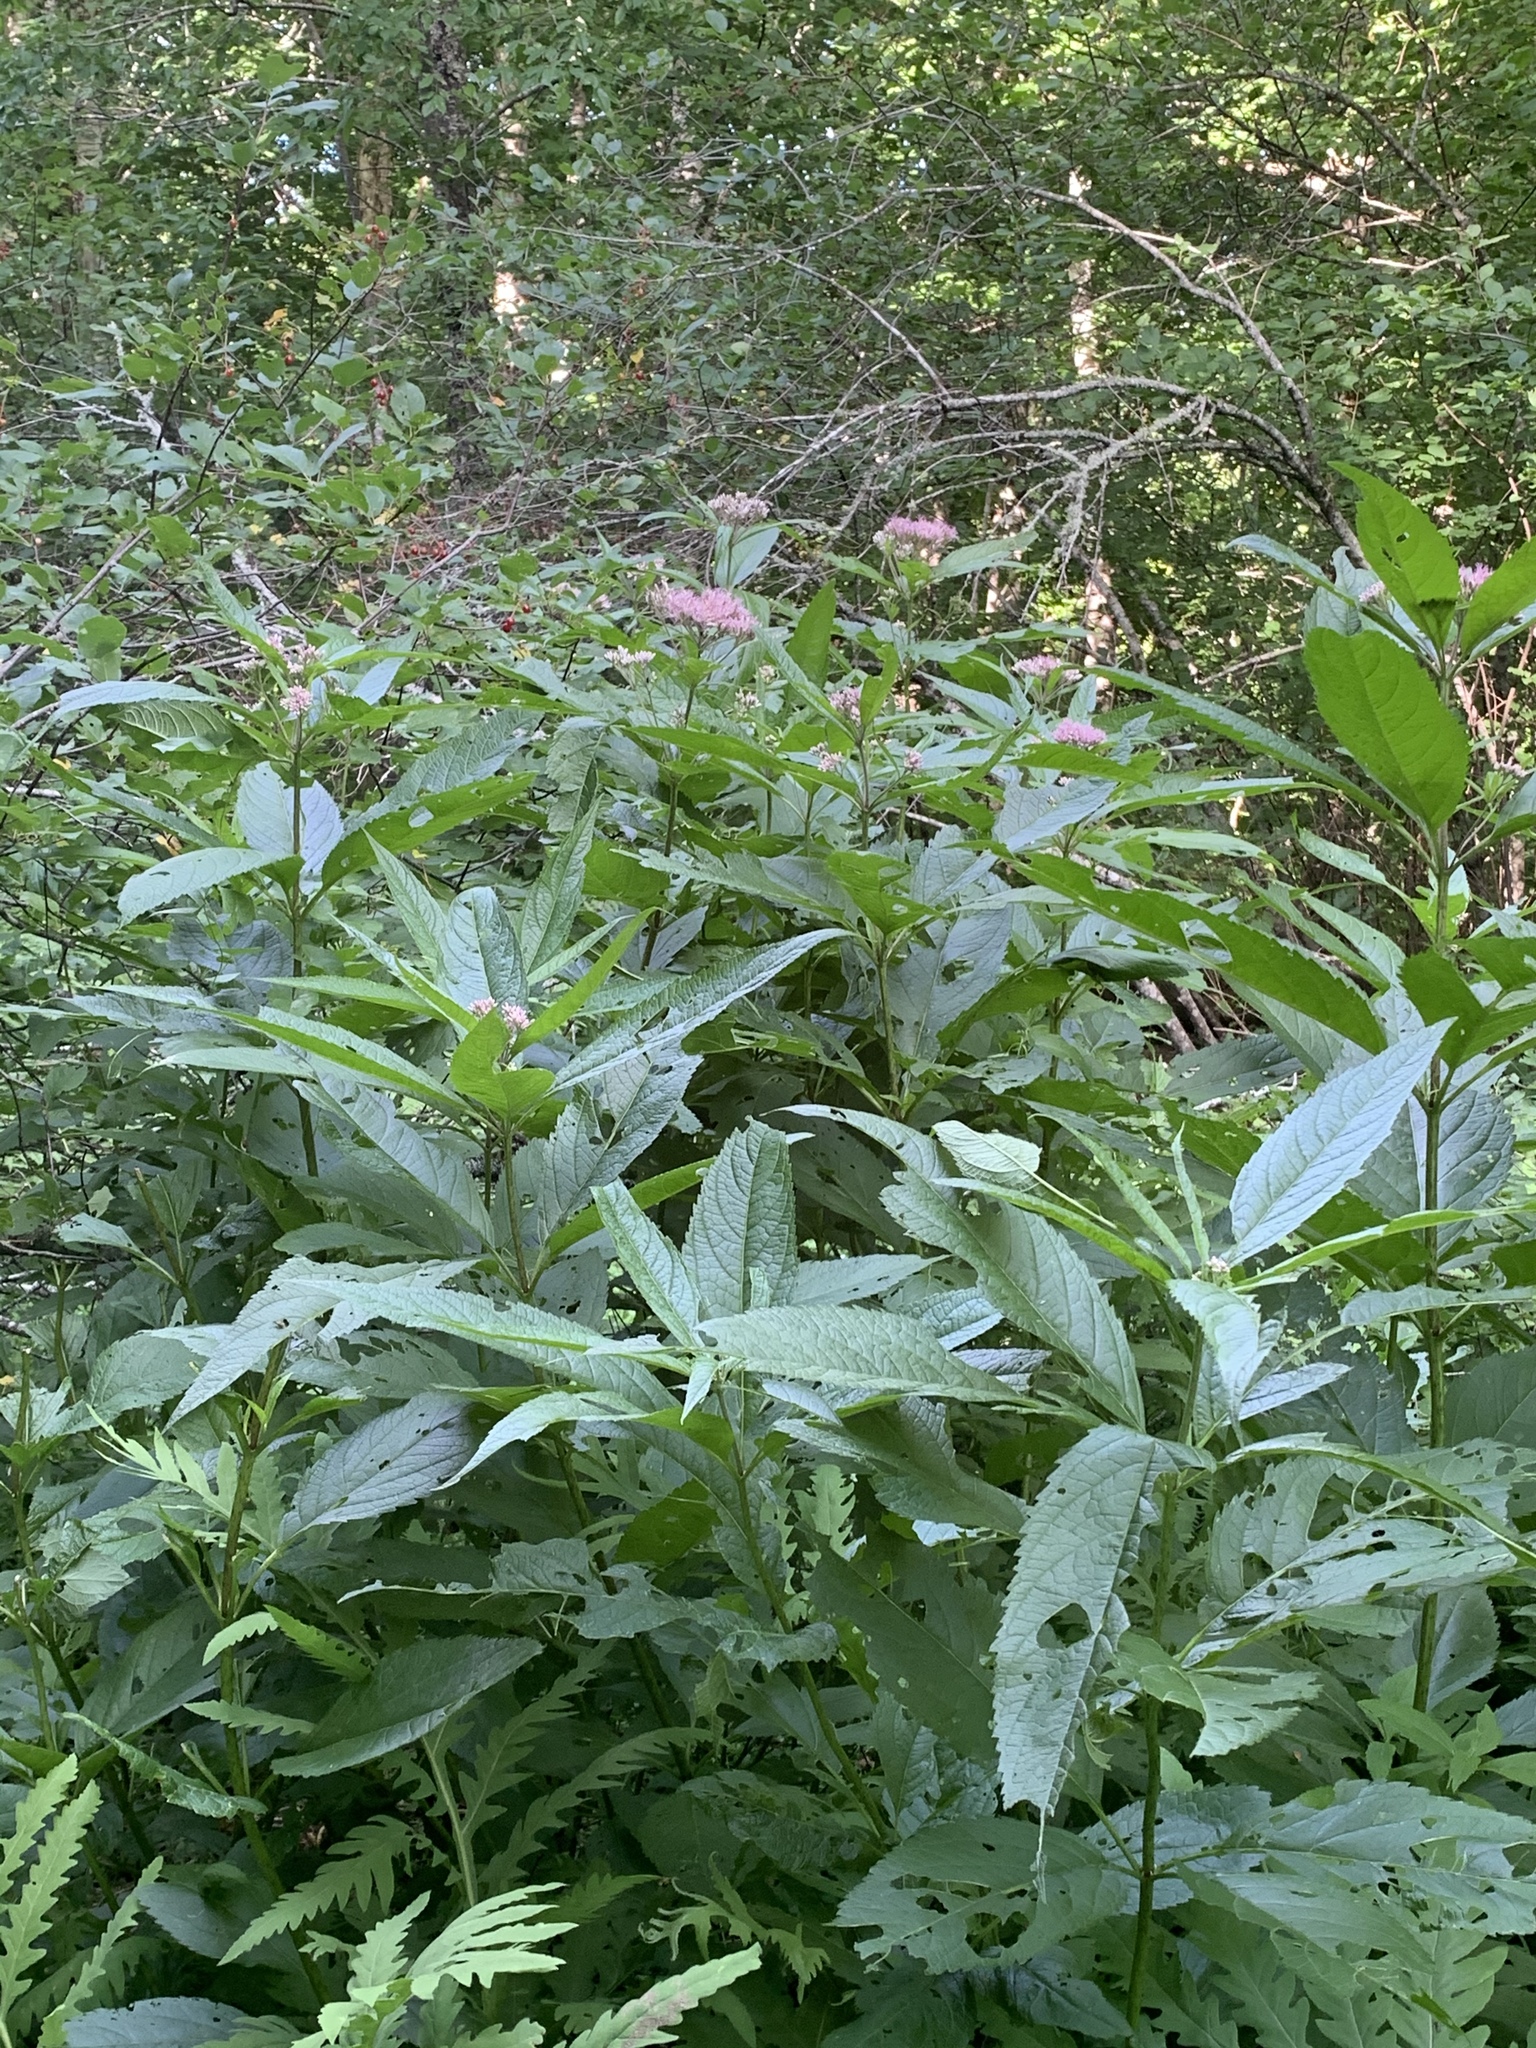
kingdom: Plantae
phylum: Tracheophyta
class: Magnoliopsida
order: Asterales
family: Asteraceae
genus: Eutrochium
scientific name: Eutrochium maculatum
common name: Spotted joe pye weed
